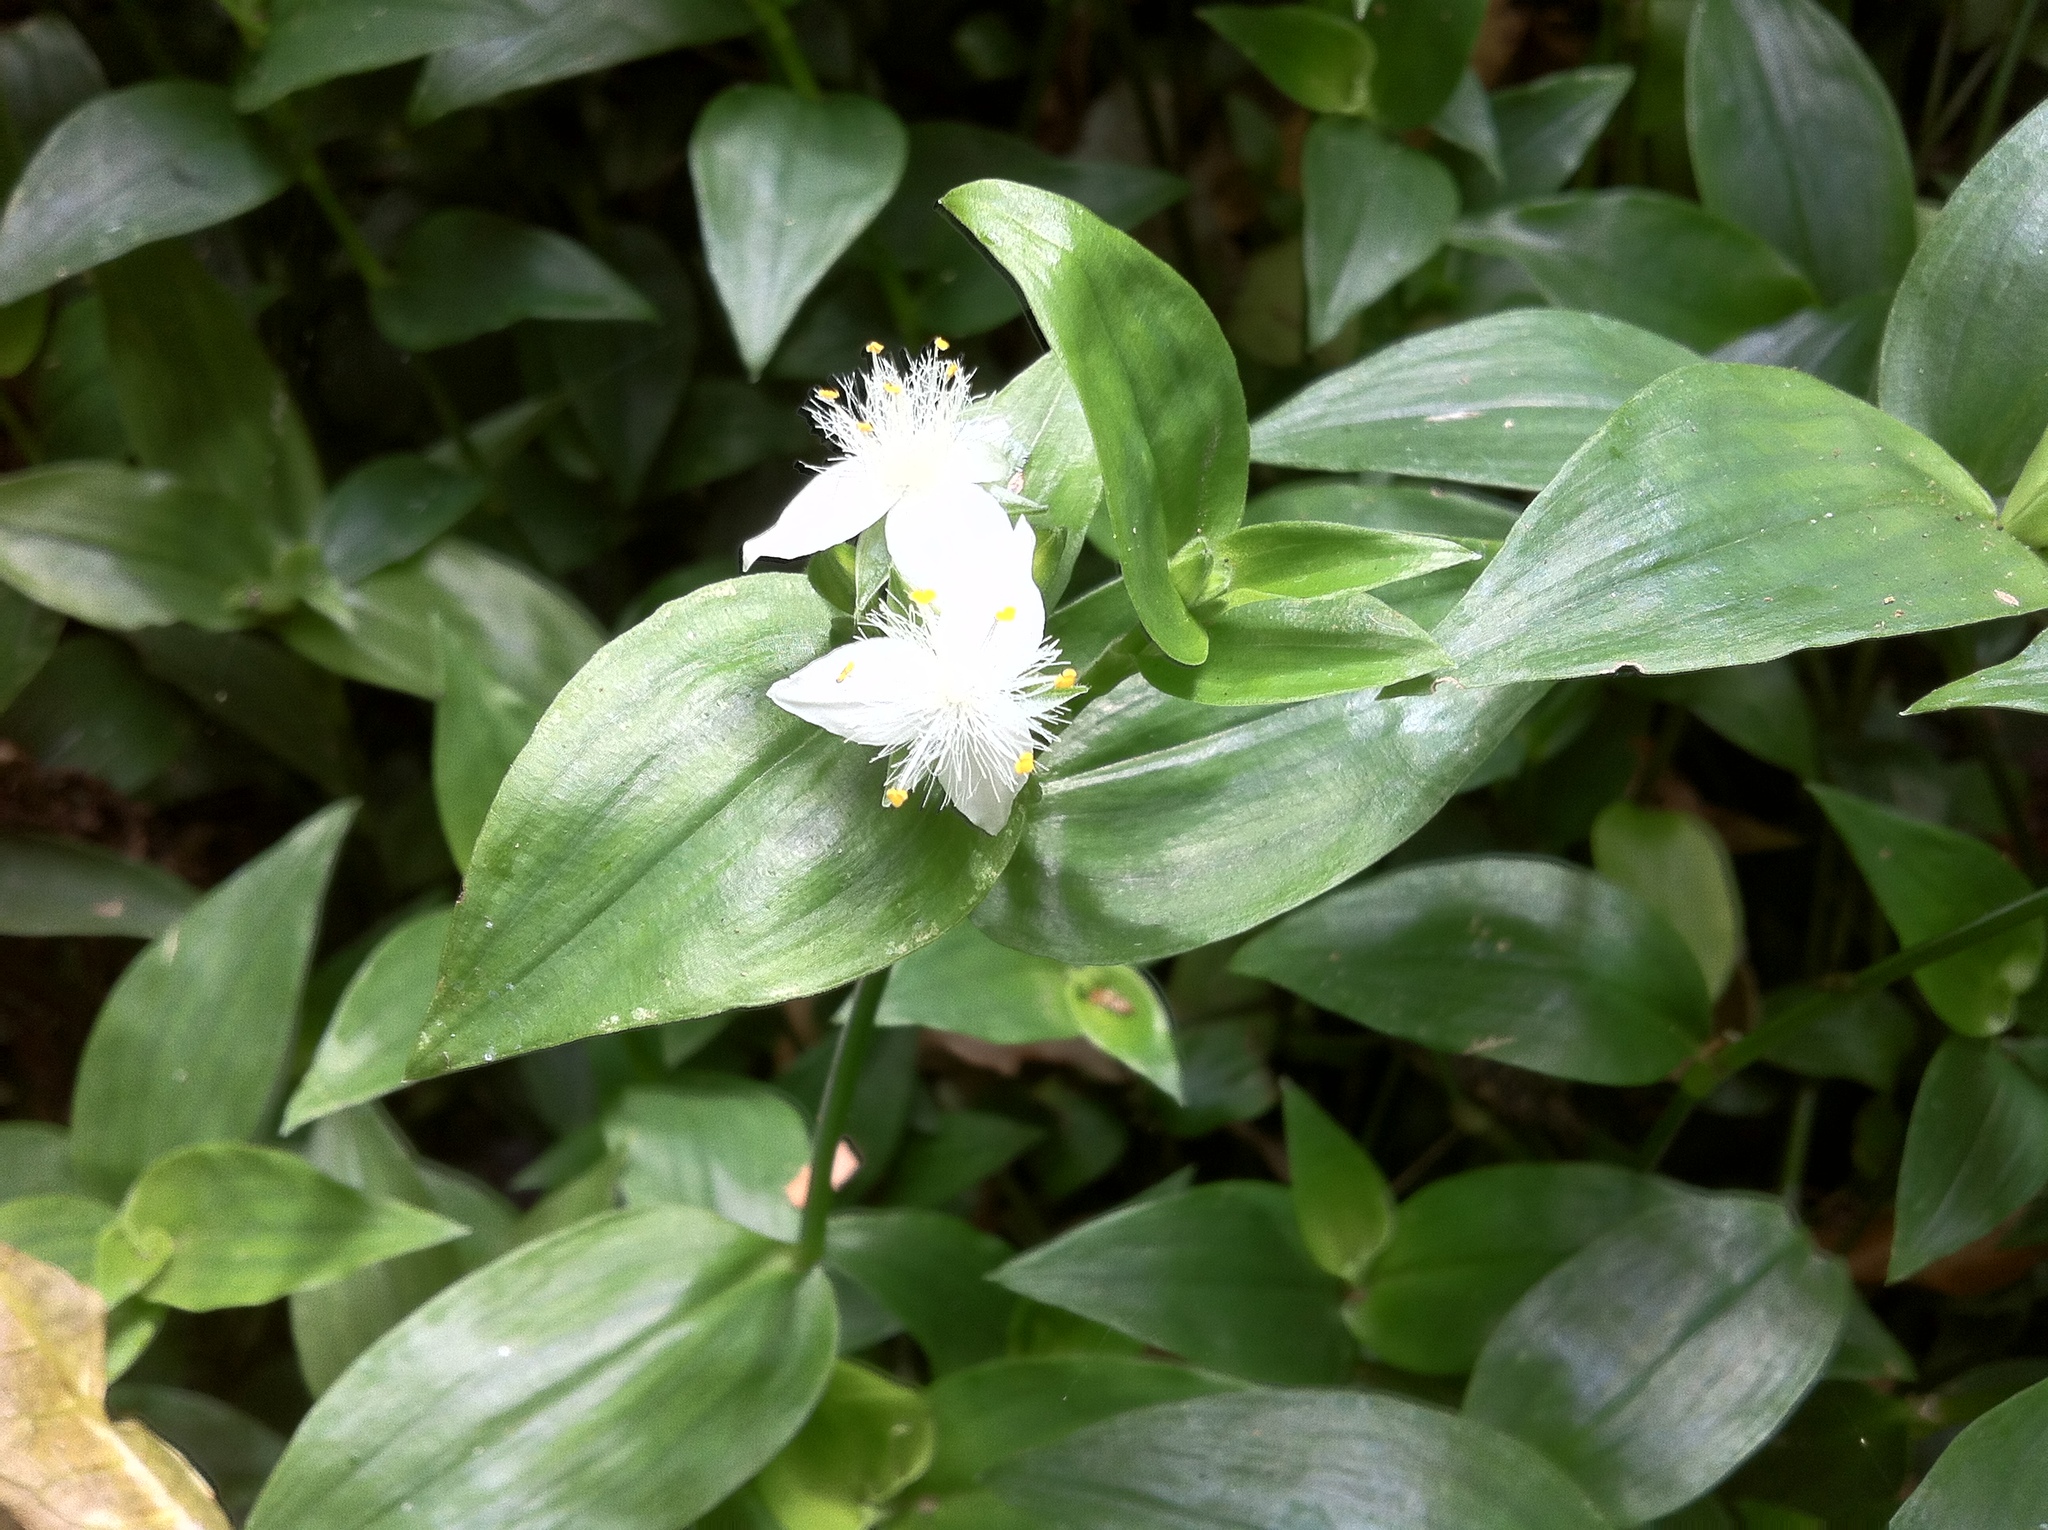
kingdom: Plantae
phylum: Tracheophyta
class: Liliopsida
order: Commelinales
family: Commelinaceae
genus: Tradescantia
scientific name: Tradescantia fluminensis
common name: Wandering-jew
